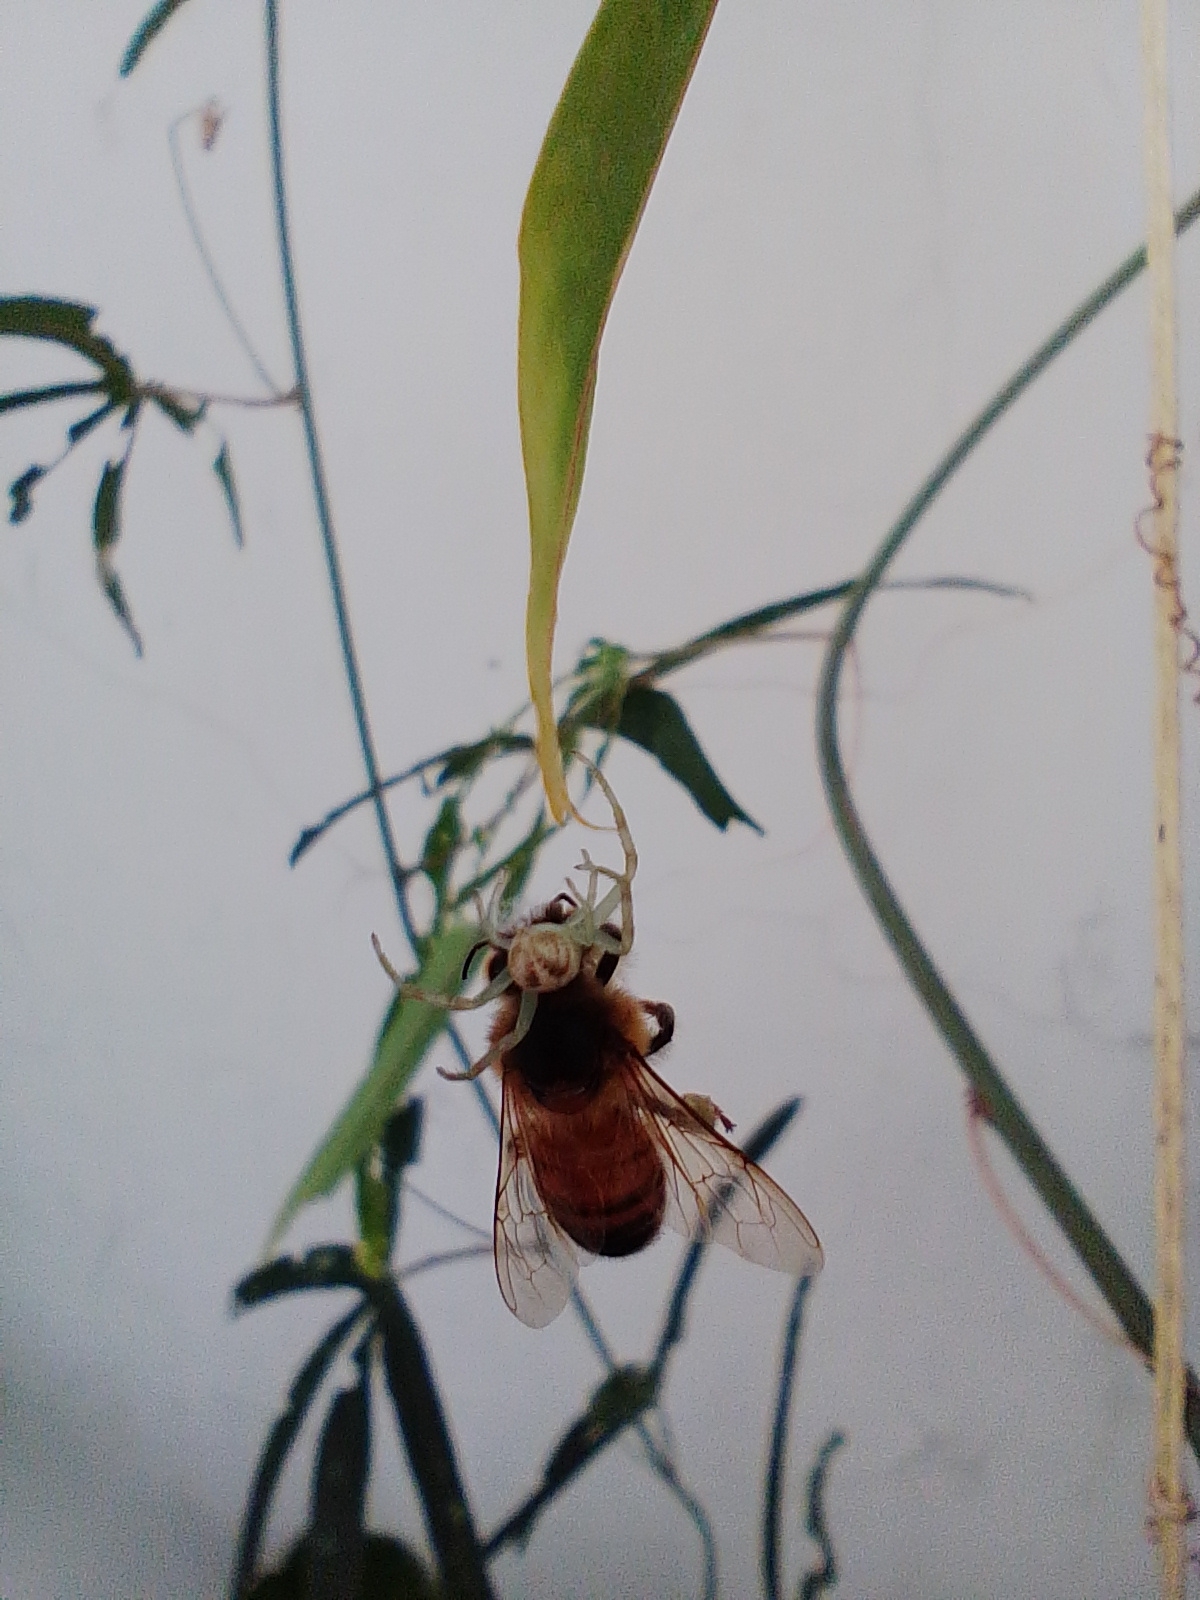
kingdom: Animalia
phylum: Arthropoda
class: Arachnida
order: Araneae
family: Thomisidae
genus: Misumenops
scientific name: Misumenops
